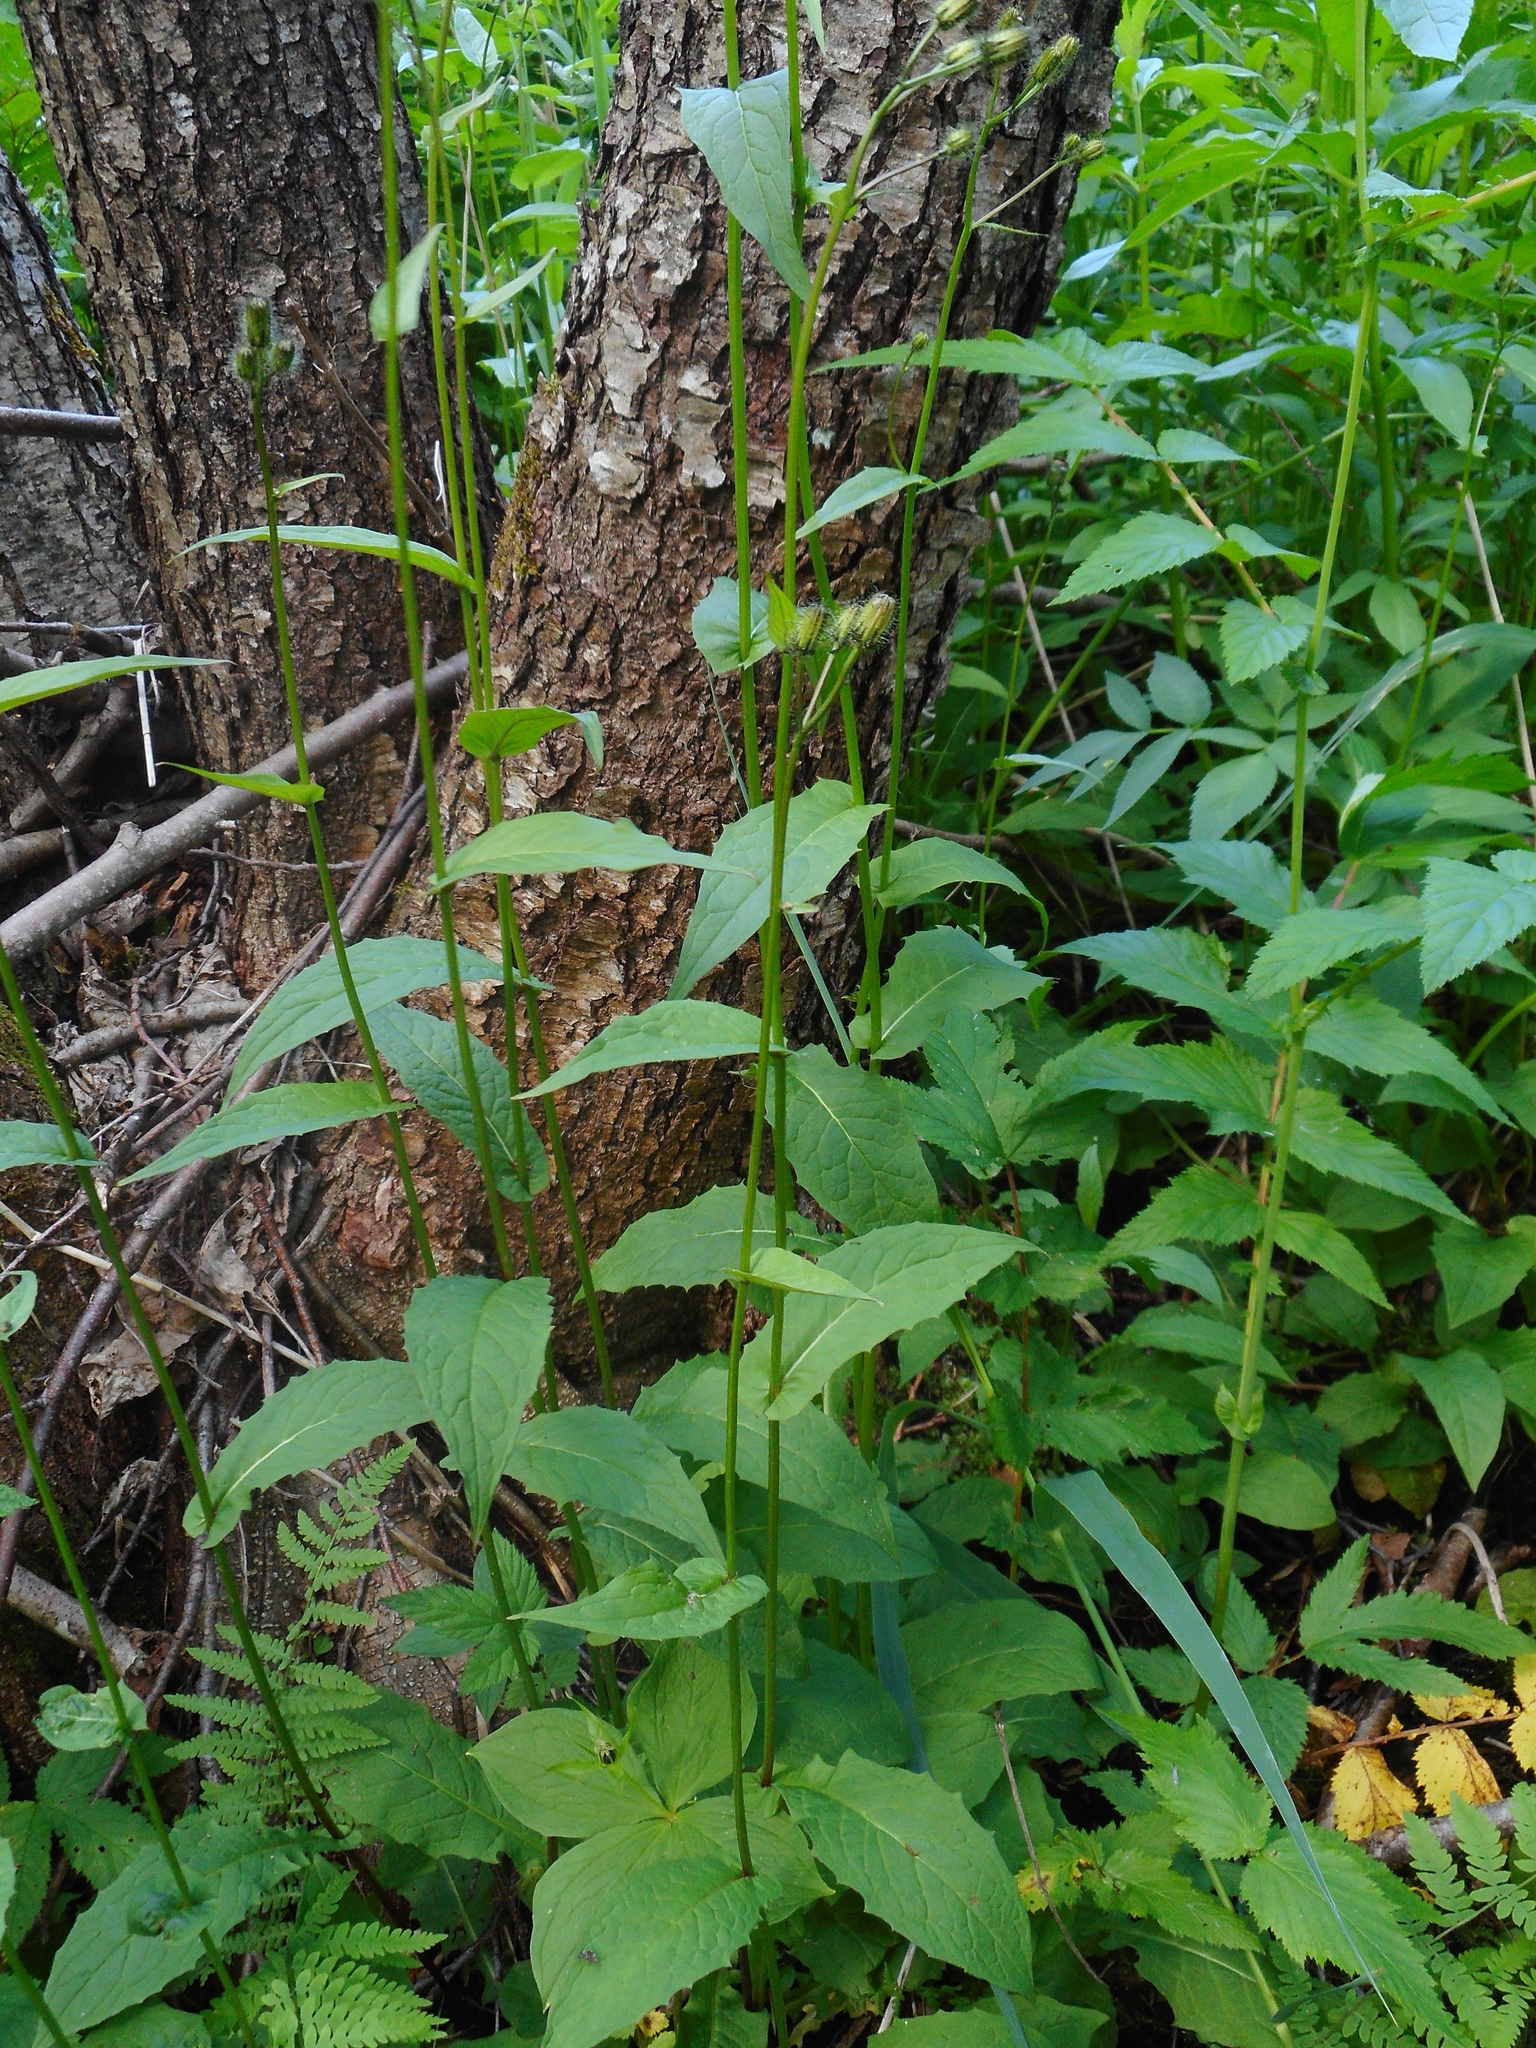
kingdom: Plantae
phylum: Tracheophyta
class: Magnoliopsida
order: Asterales
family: Asteraceae
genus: Crepis
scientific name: Crepis paludosa
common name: Marsh hawk's-beard
